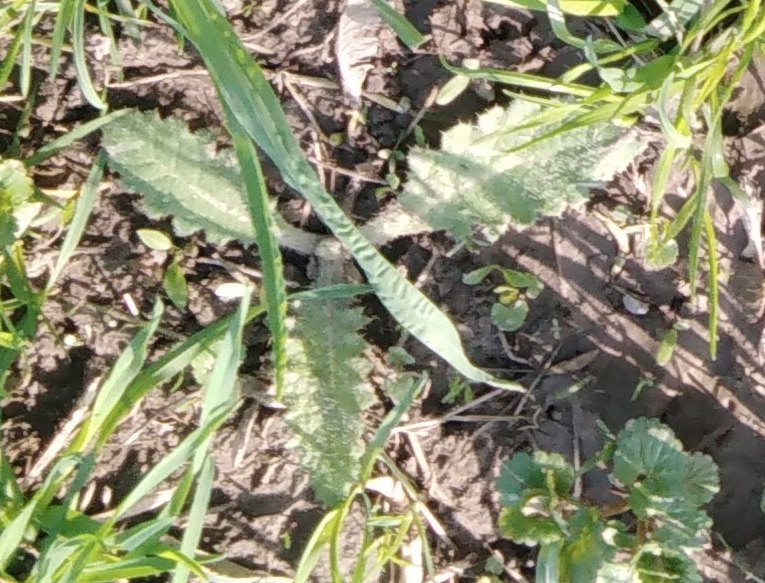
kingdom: Plantae
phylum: Tracheophyta
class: Magnoliopsida
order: Asterales
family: Asteraceae
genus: Cirsium
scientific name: Cirsium vulgare
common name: Bull thistle
